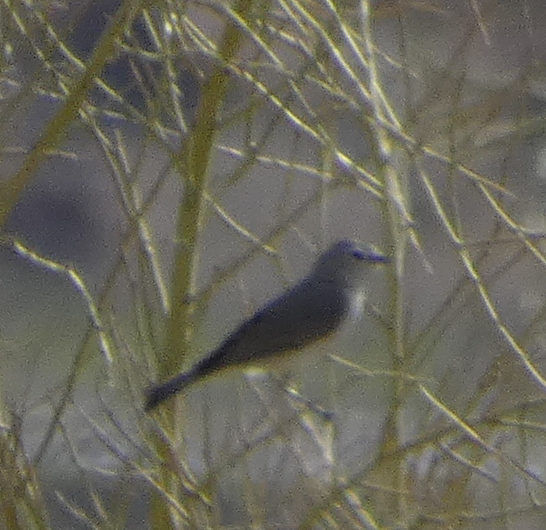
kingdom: Animalia
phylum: Chordata
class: Aves
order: Passeriformes
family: Parulidae
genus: Leiothlypis
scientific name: Leiothlypis luciae
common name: Lucy's warbler
